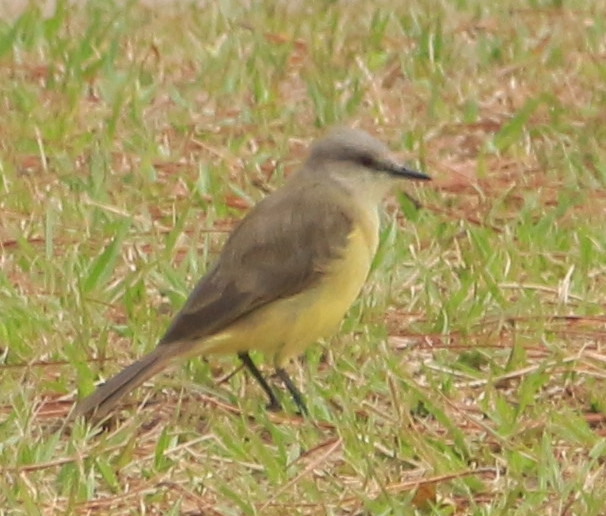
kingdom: Animalia
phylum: Chordata
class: Aves
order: Passeriformes
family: Tyrannidae
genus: Machetornis
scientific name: Machetornis rixosa
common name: Cattle tyrant
